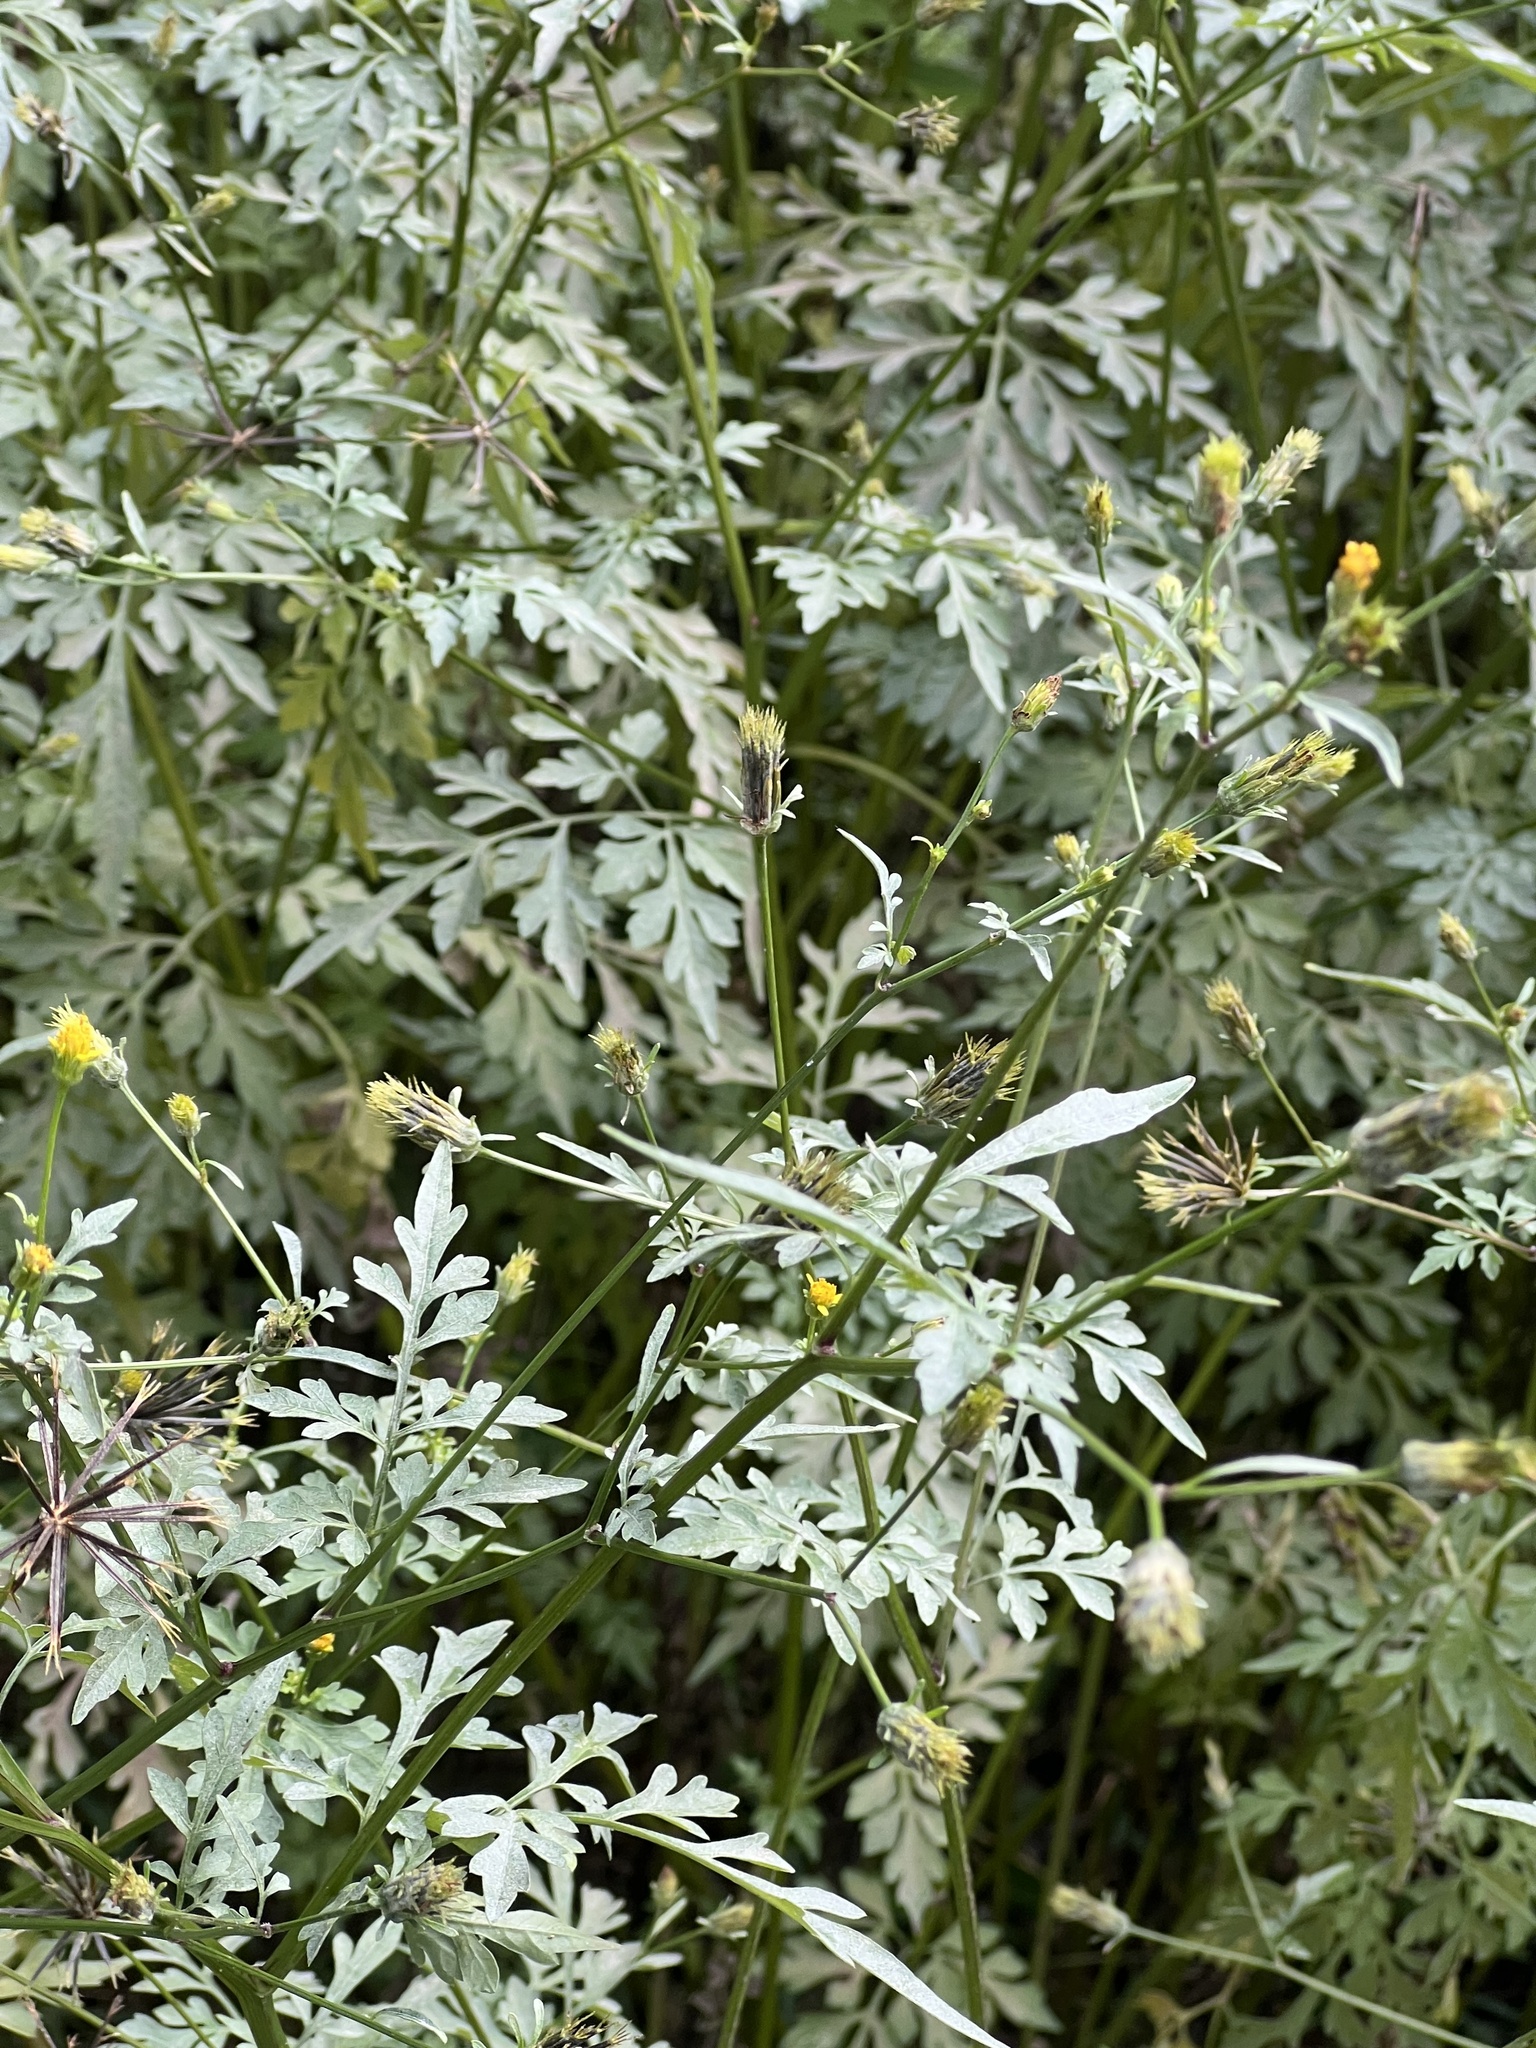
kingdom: Plantae
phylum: Tracheophyta
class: Magnoliopsida
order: Asterales
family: Asteraceae
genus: Bidens
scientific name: Bidens bipinnata
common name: Spanish-needles
